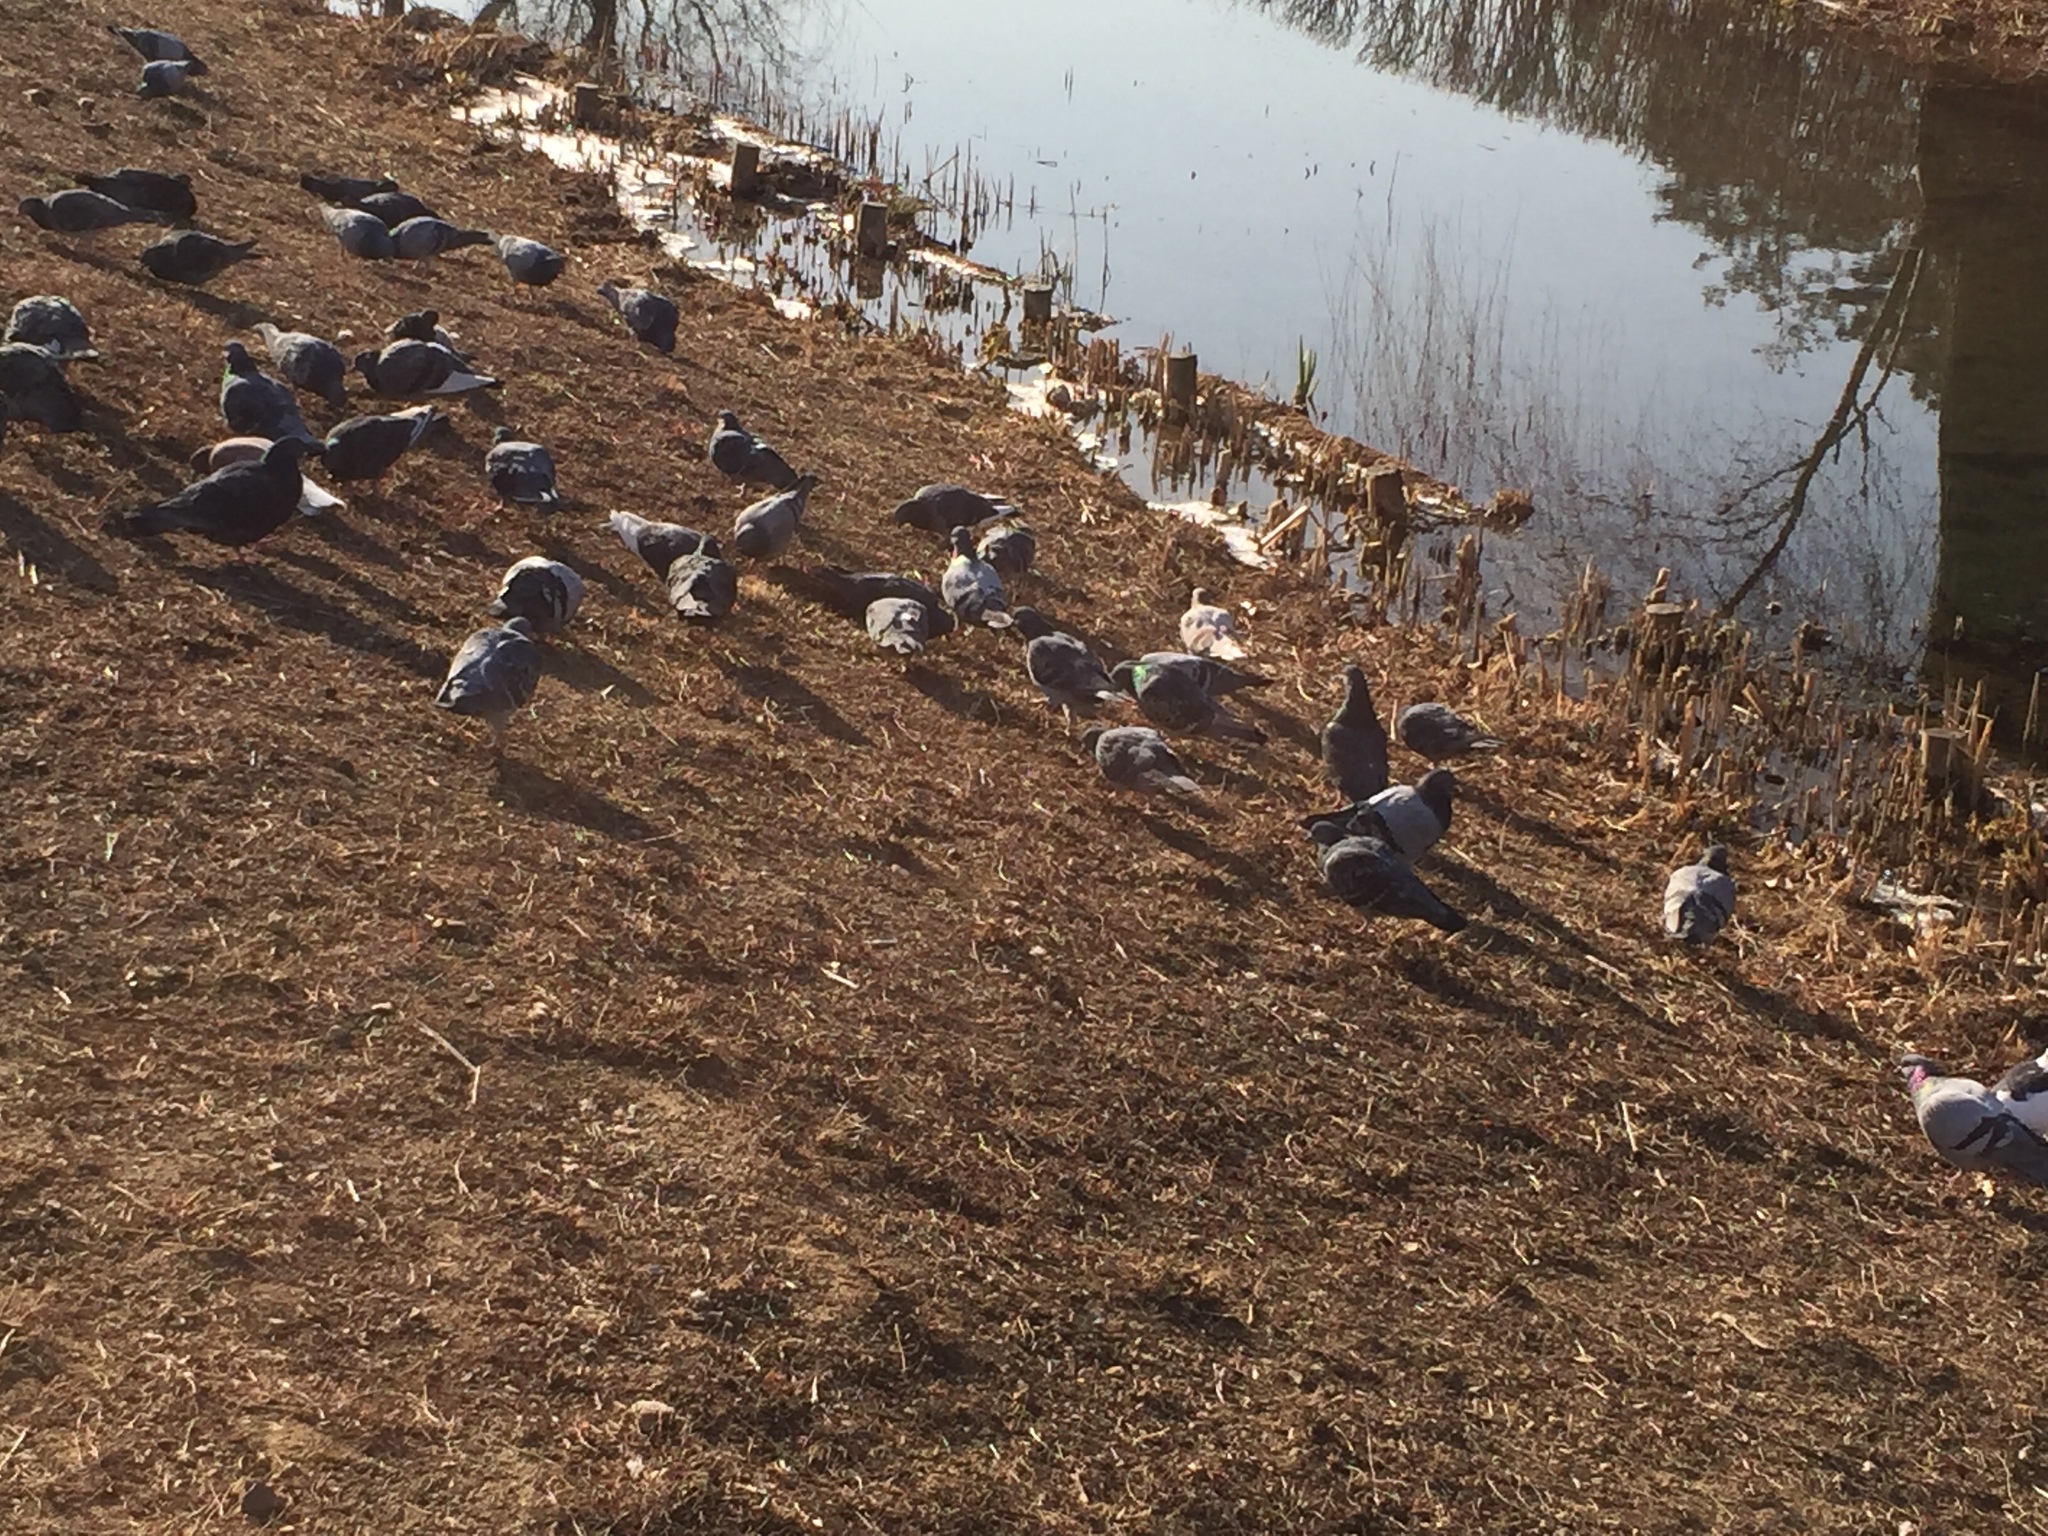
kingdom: Animalia
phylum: Chordata
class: Aves
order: Columbiformes
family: Columbidae
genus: Columba
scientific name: Columba livia
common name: Rock pigeon
